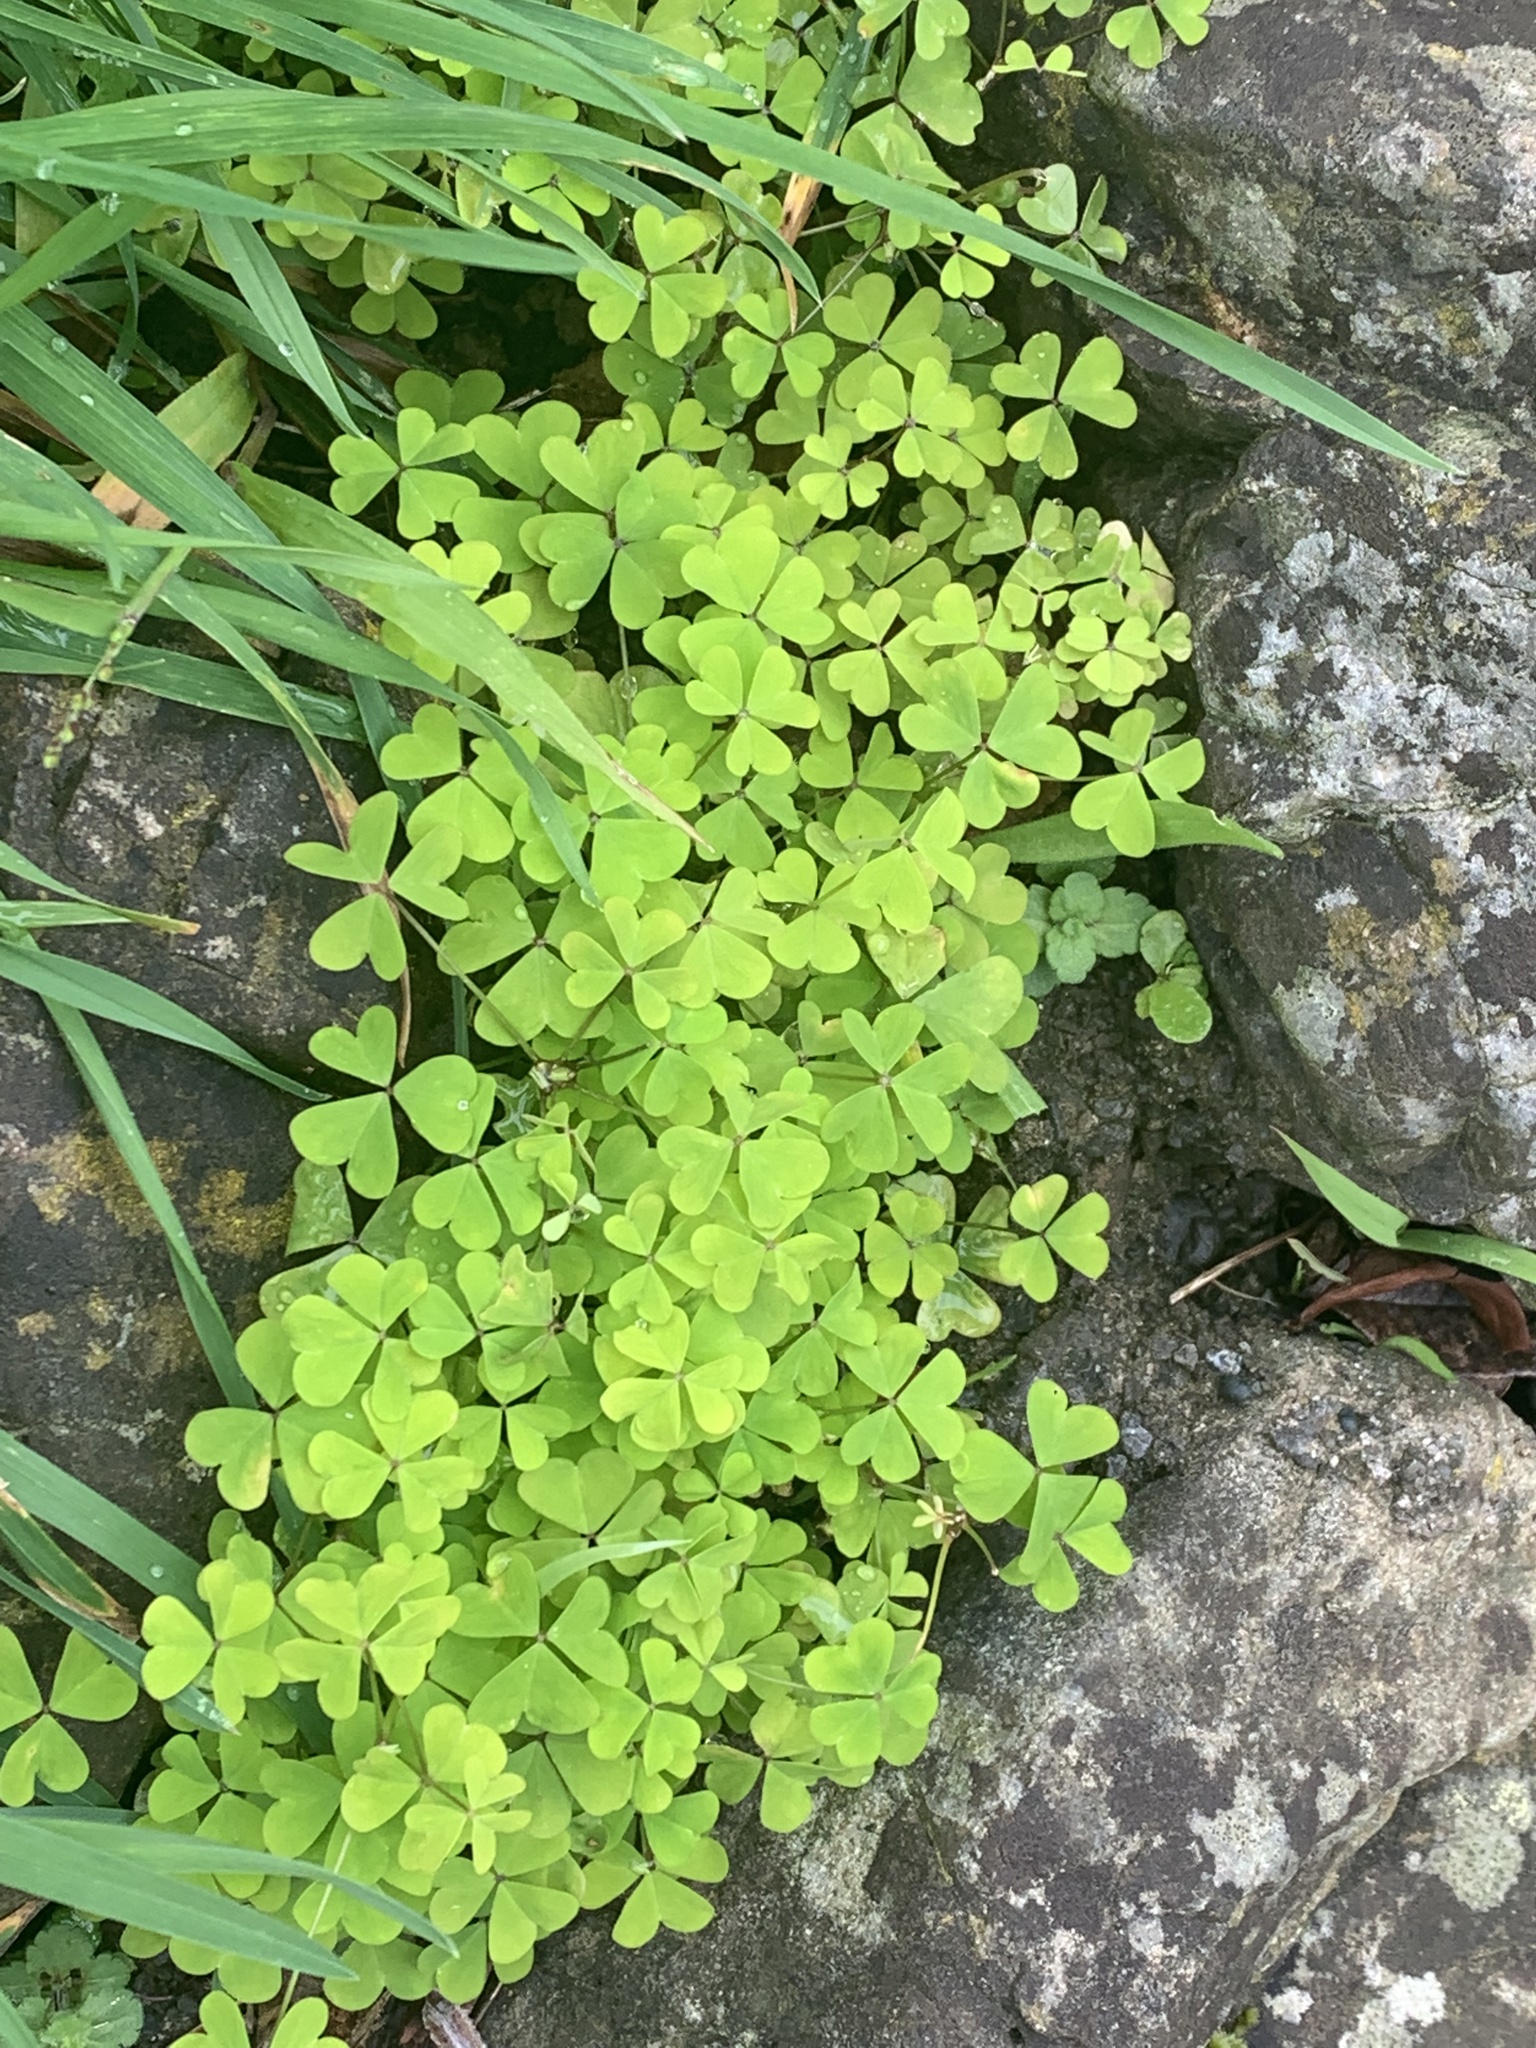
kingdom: Plantae
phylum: Tracheophyta
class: Magnoliopsida
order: Oxalidales
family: Oxalidaceae
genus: Oxalis
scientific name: Oxalis incarnata
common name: Pale pink-sorrel
